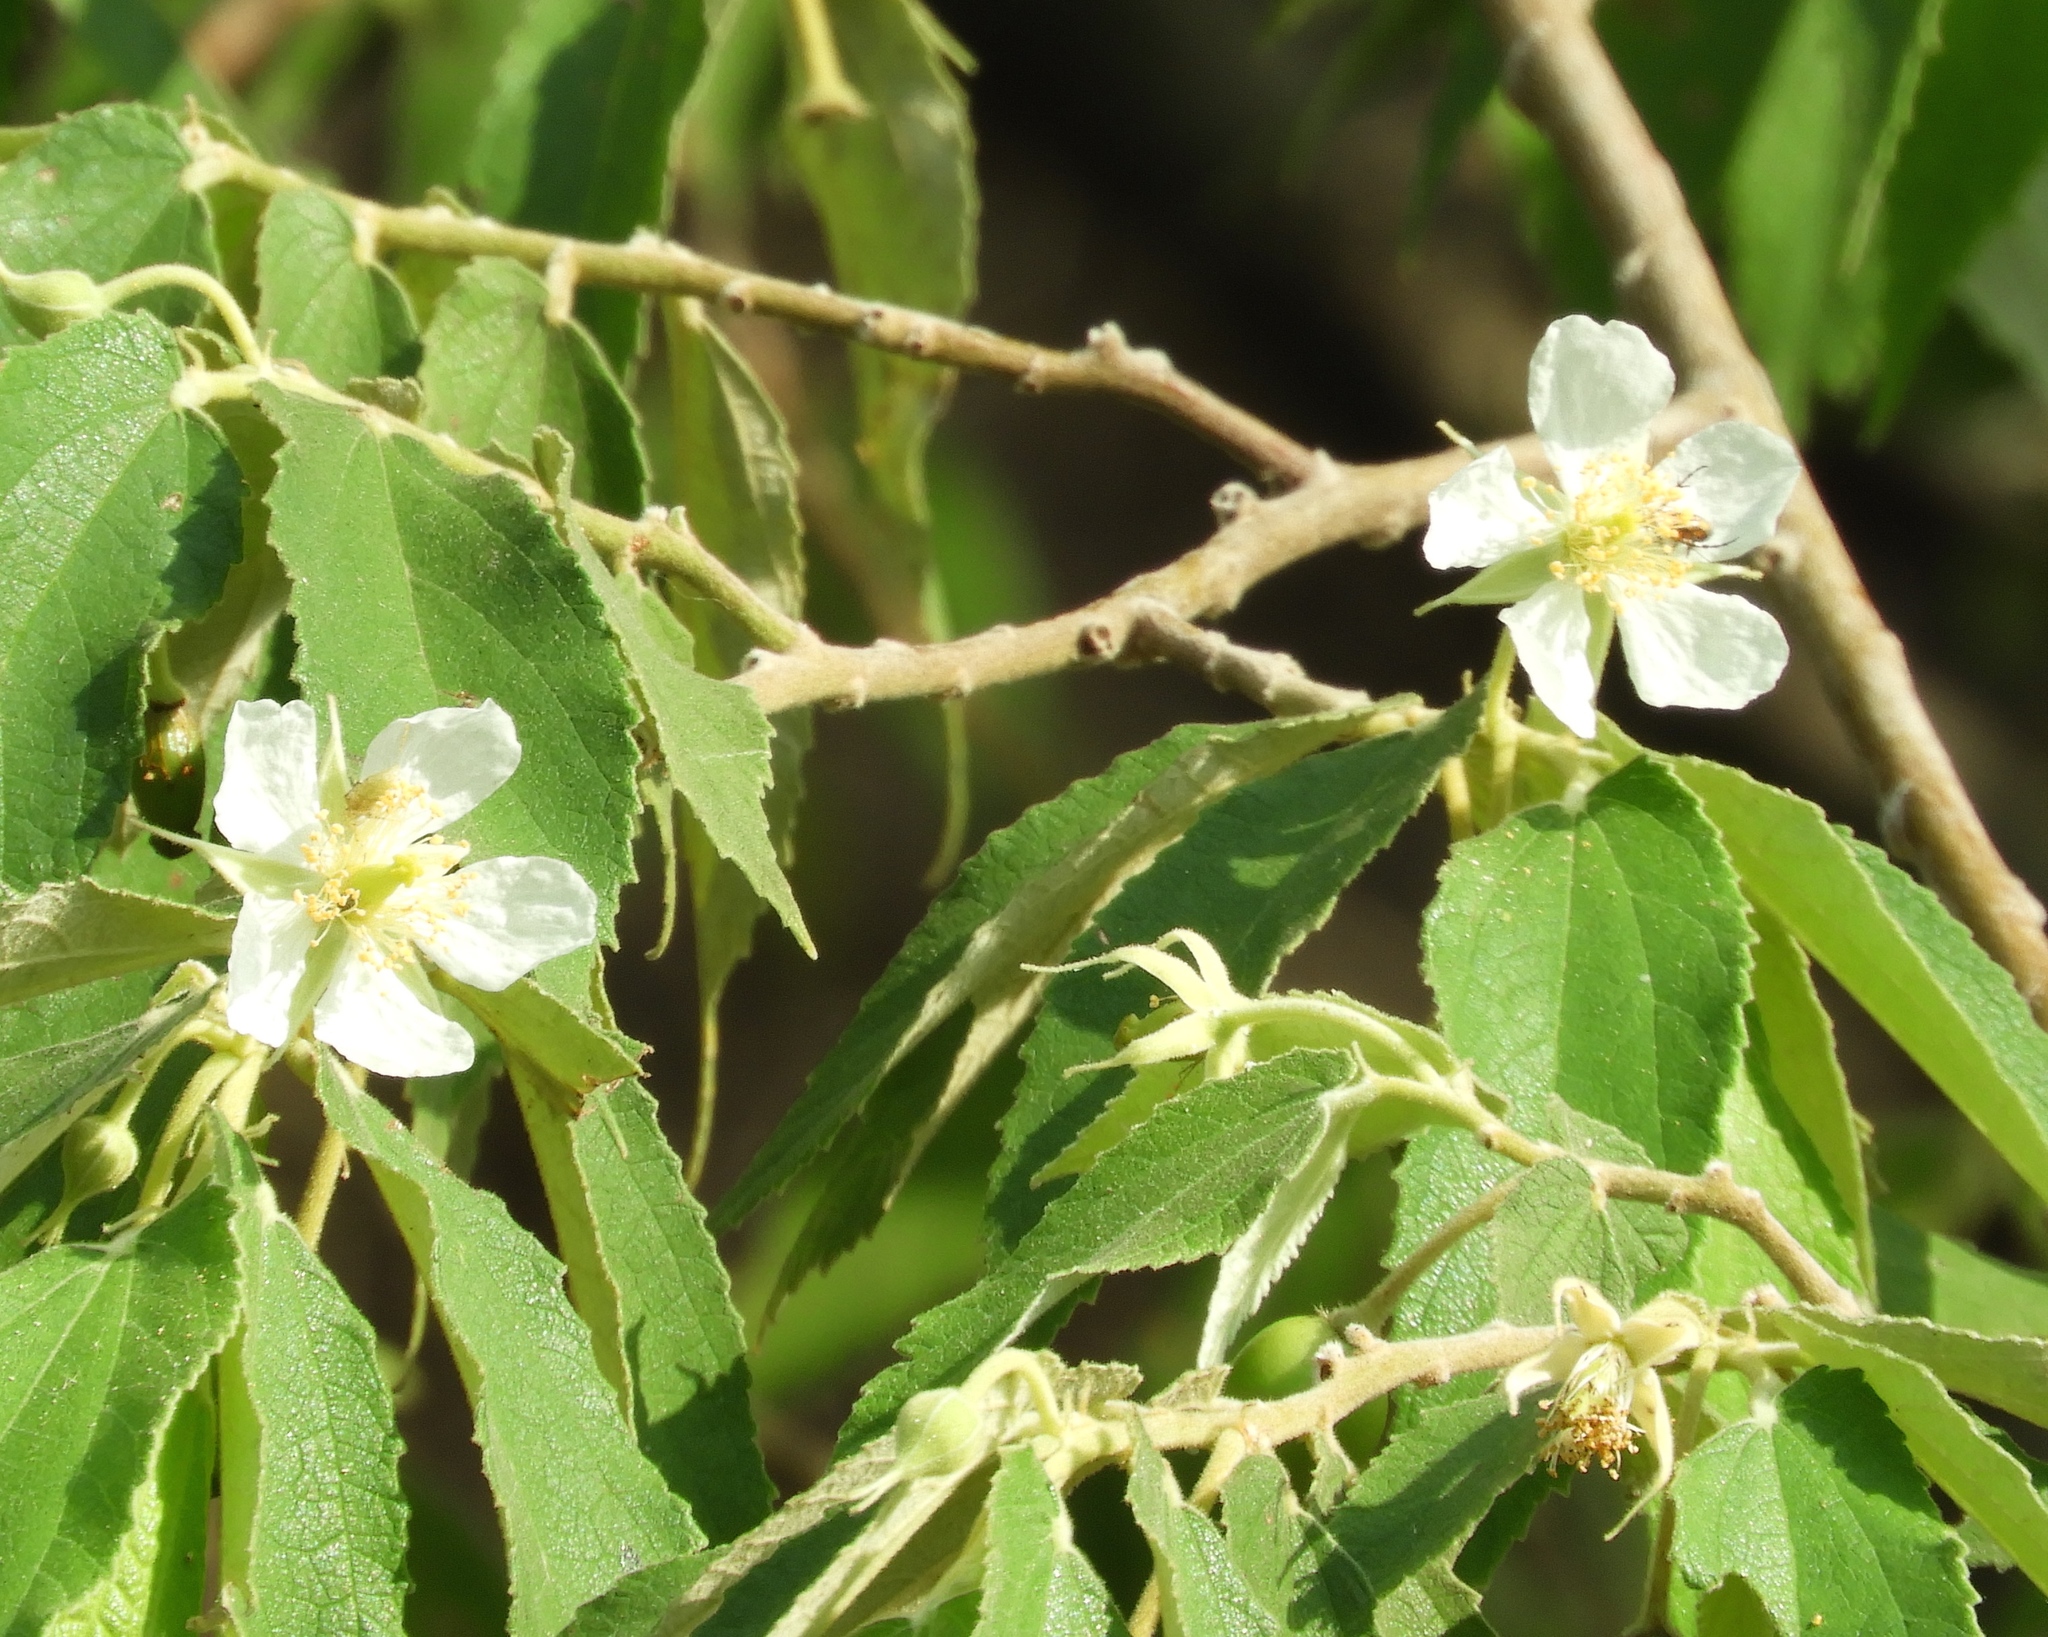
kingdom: Plantae
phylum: Tracheophyta
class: Magnoliopsida
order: Malvales
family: Muntingiaceae
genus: Muntingia
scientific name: Muntingia calabura
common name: Strawberrytree
